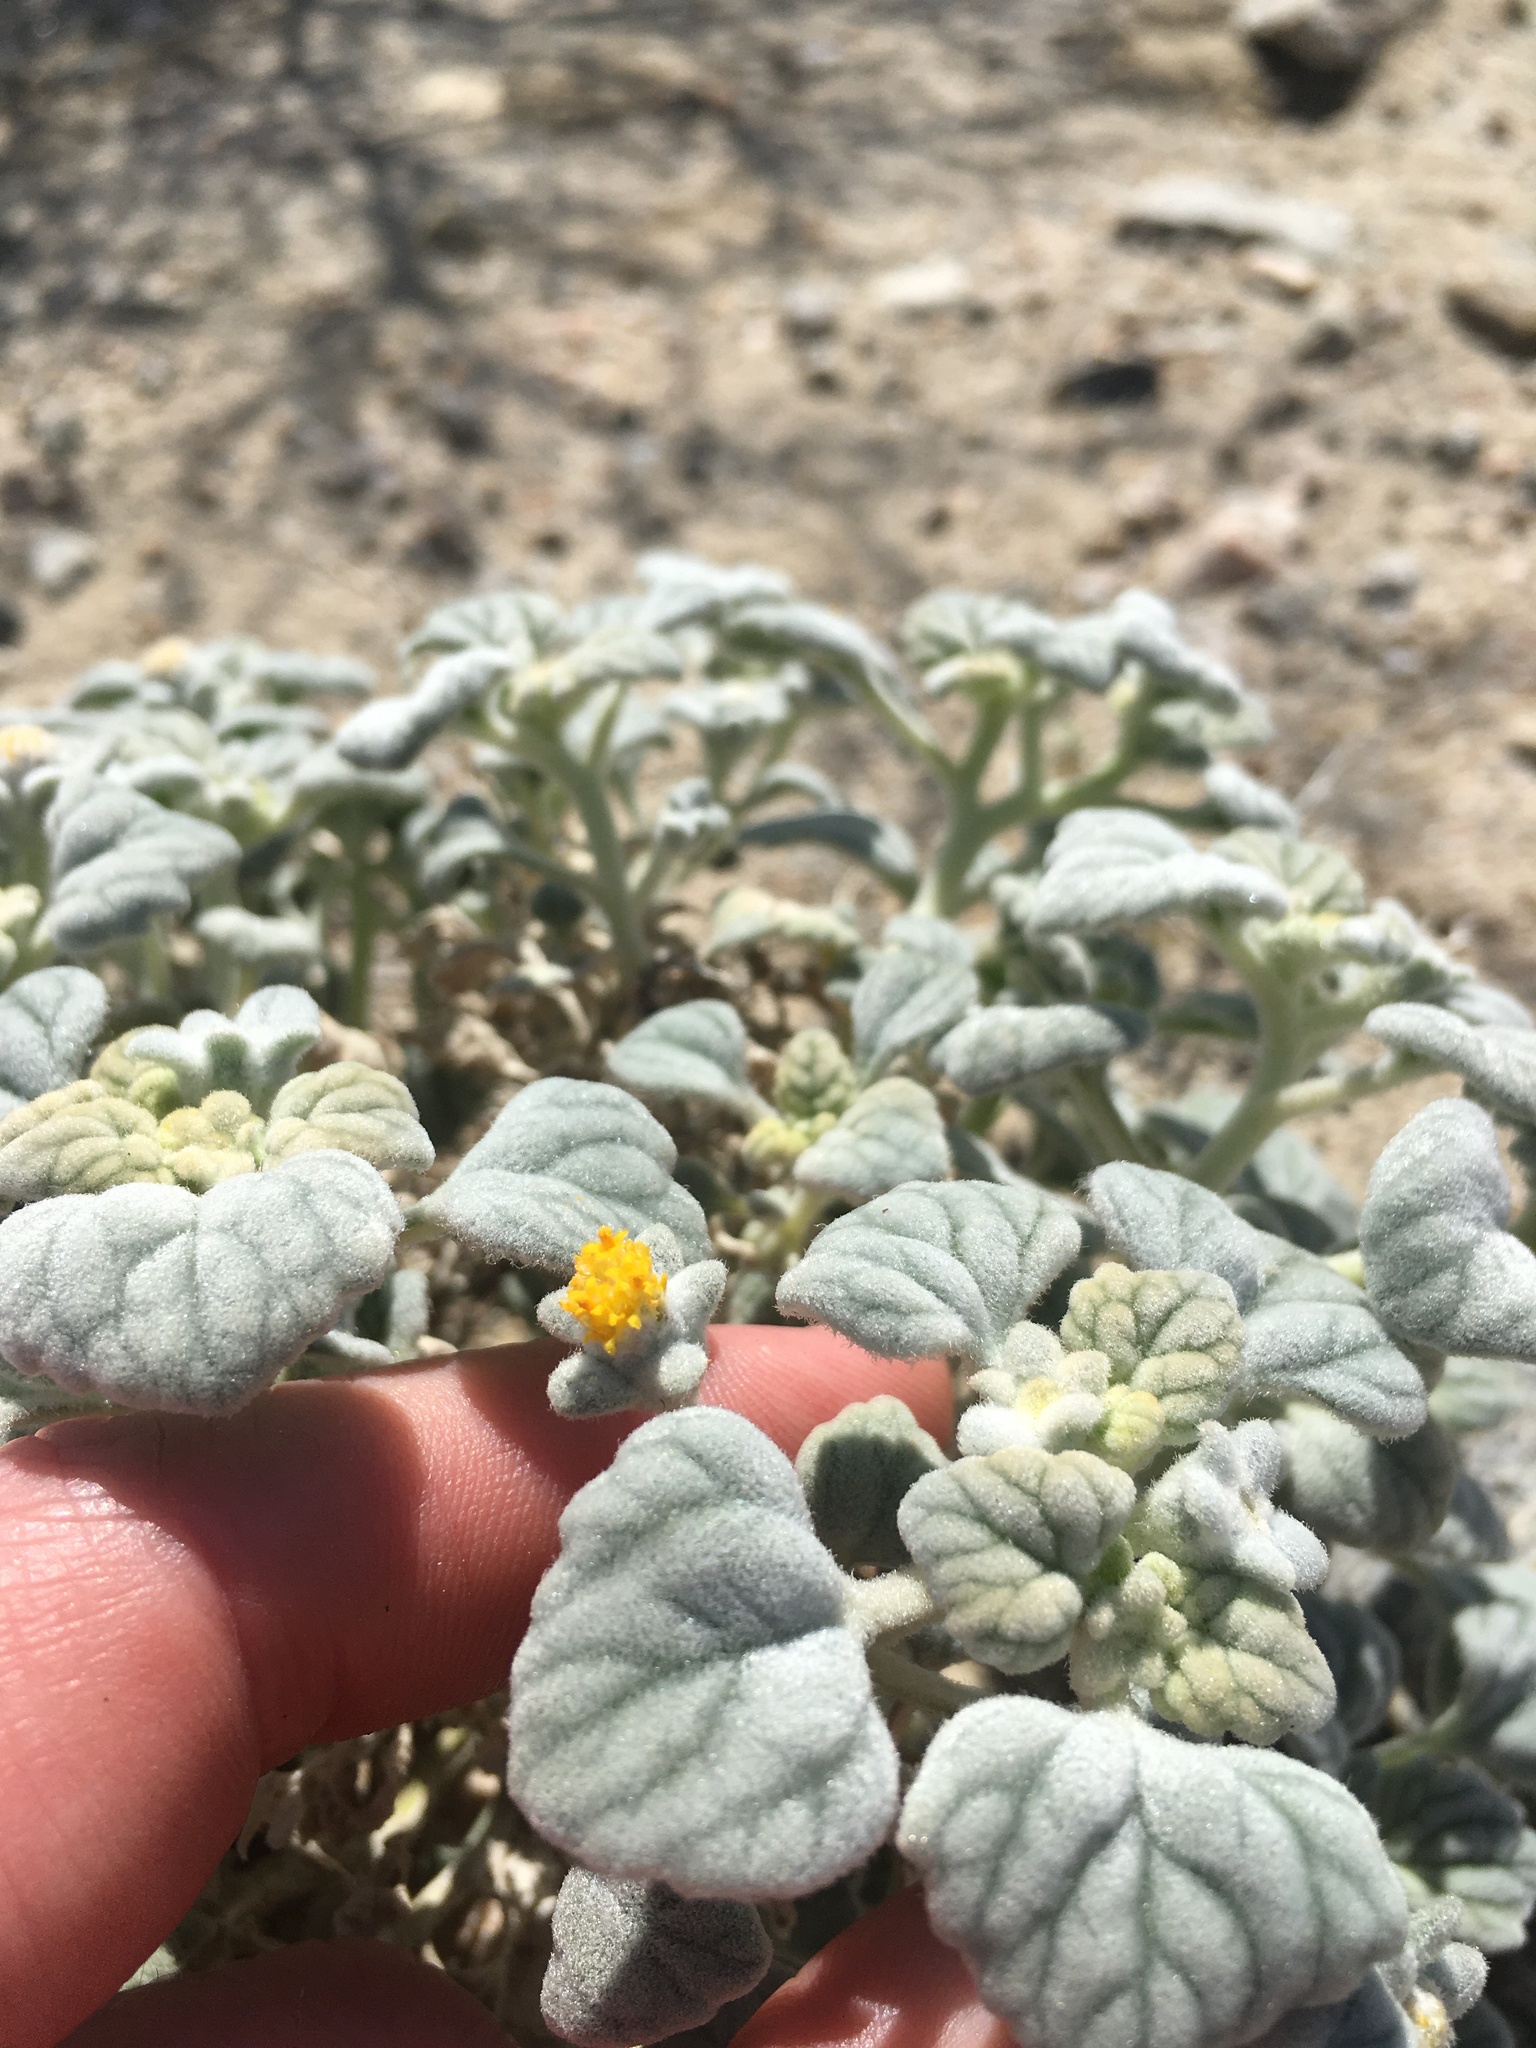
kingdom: Plantae
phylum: Tracheophyta
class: Magnoliopsida
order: Asterales
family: Asteraceae
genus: Psathyrotes
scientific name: Psathyrotes ramosissima
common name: Turtleback
